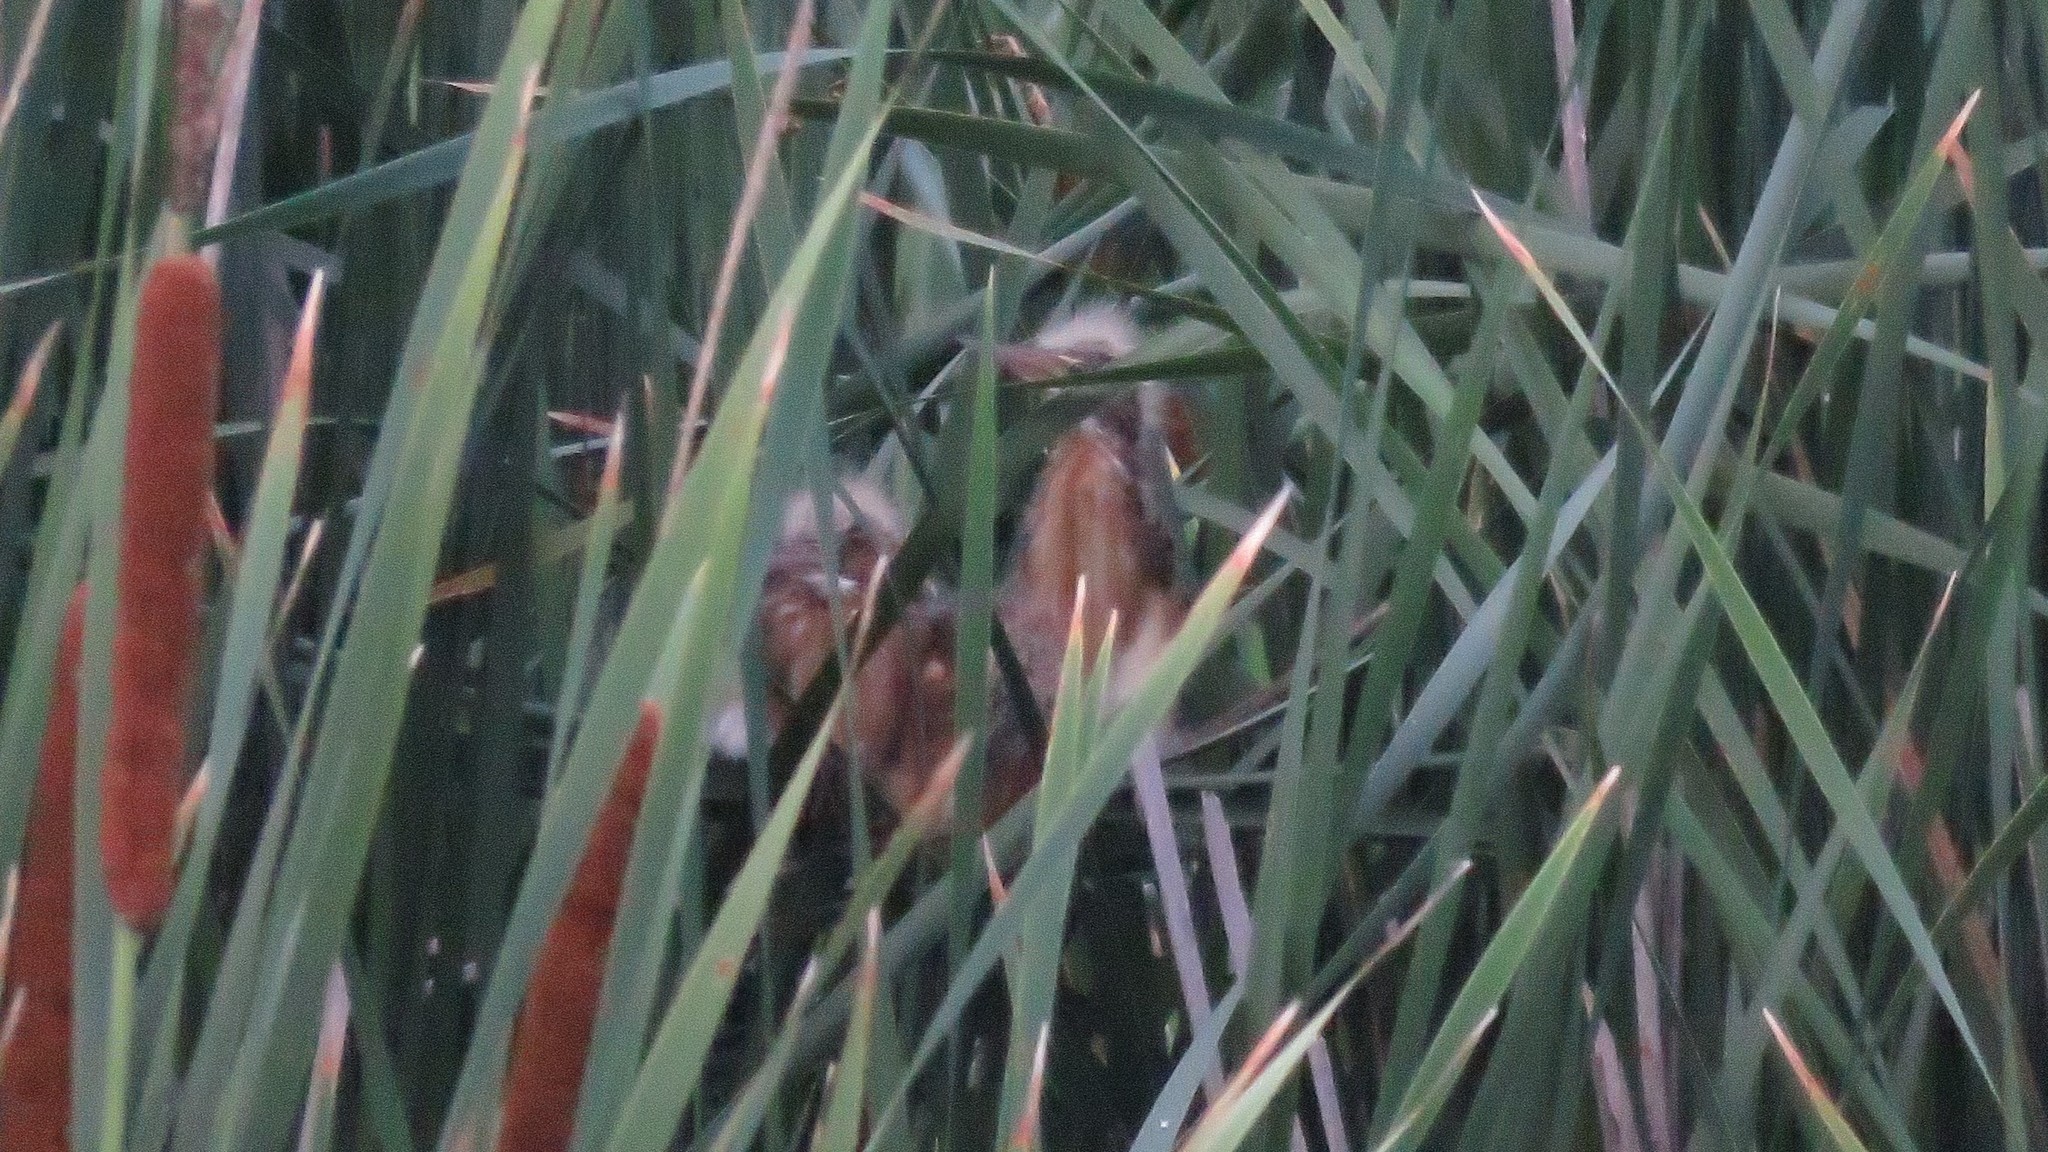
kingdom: Animalia
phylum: Chordata
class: Aves
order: Pelecaniformes
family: Ardeidae
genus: Ixobrychus
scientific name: Ixobrychus exilis
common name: Least bittern
